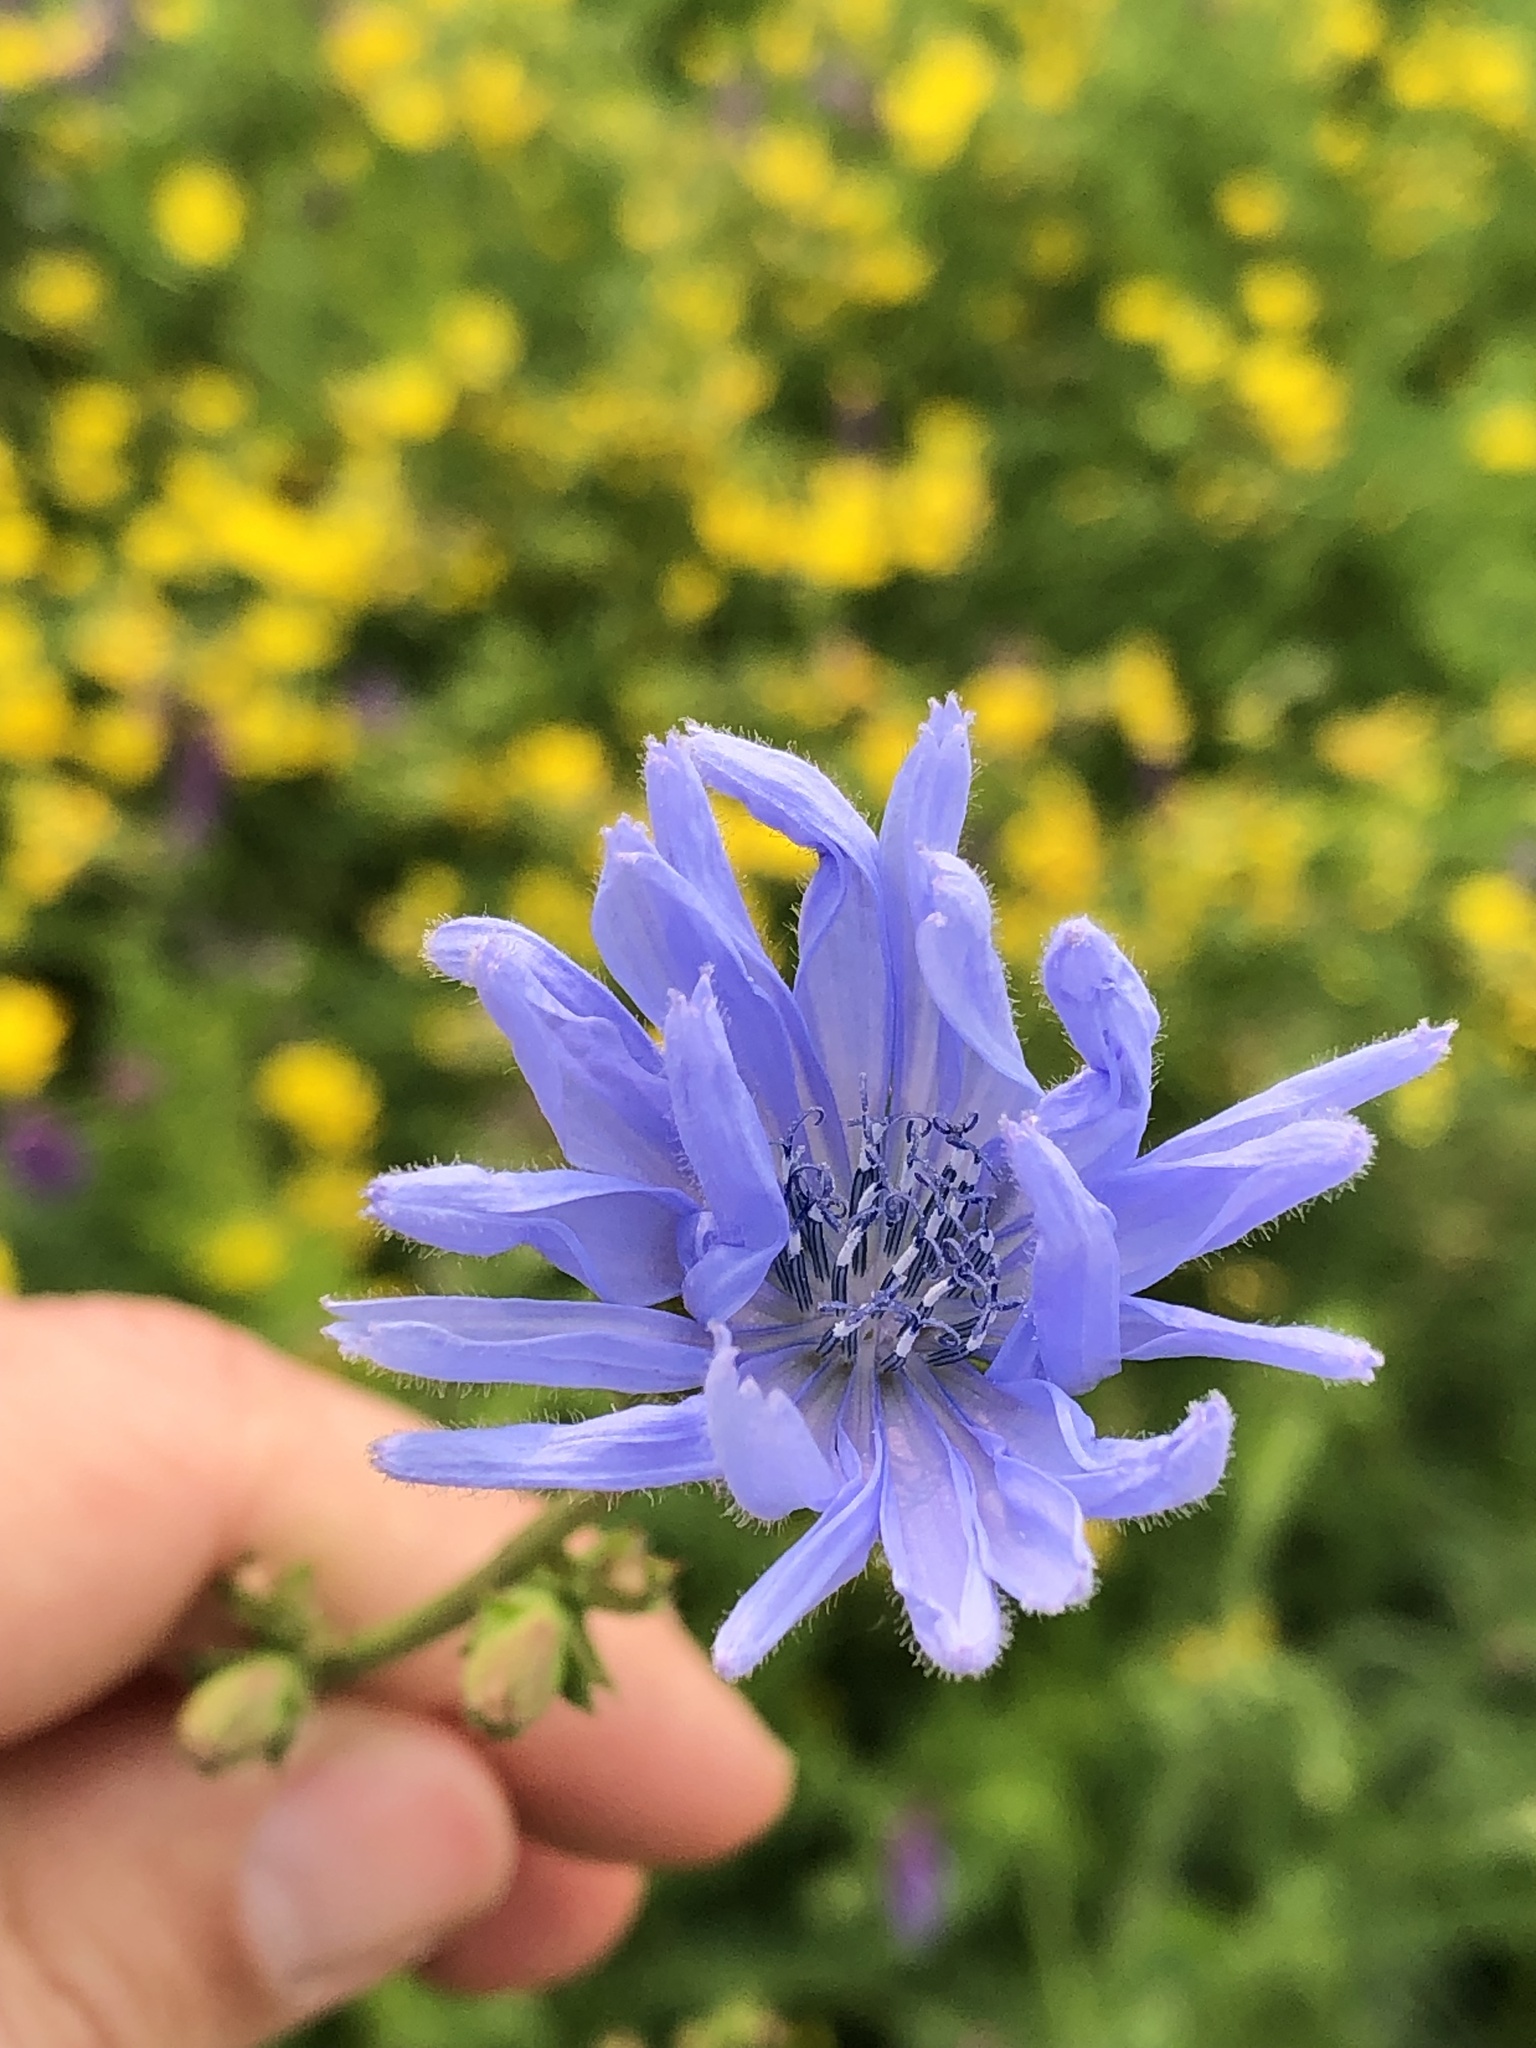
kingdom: Plantae
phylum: Tracheophyta
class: Magnoliopsida
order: Asterales
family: Asteraceae
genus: Cichorium
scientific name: Cichorium intybus
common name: Chicory
